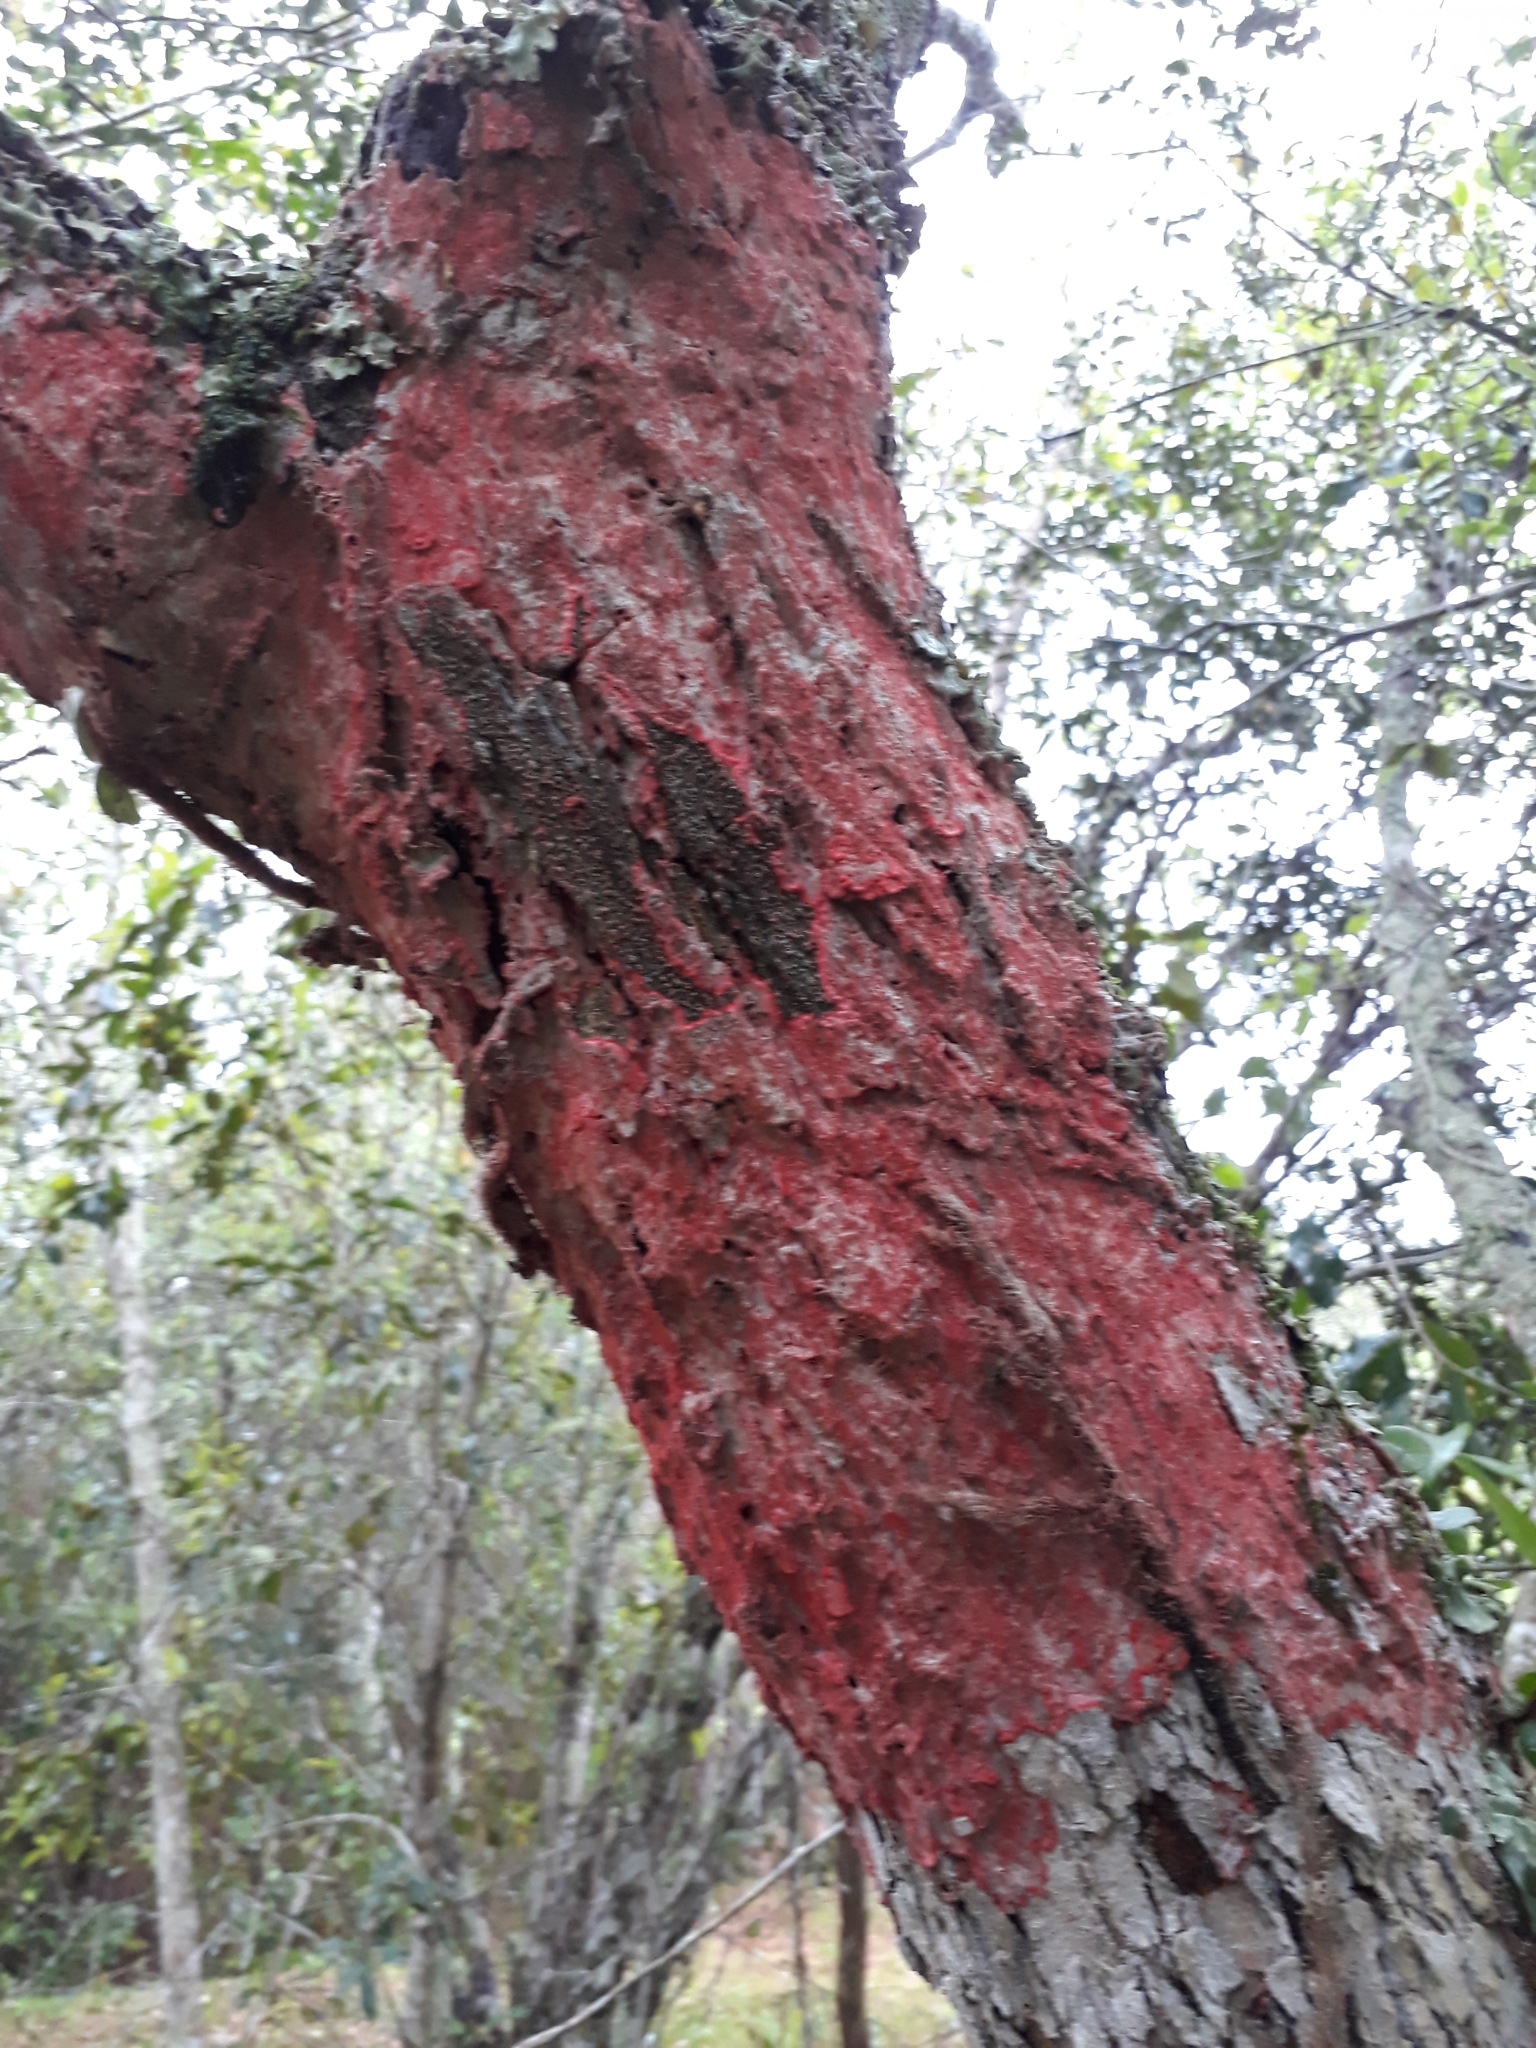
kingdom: Fungi
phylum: Ascomycota
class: Arthoniomycetes
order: Arthoniales
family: Arthoniaceae
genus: Herpothallon
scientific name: Herpothallon rubrocinctum
